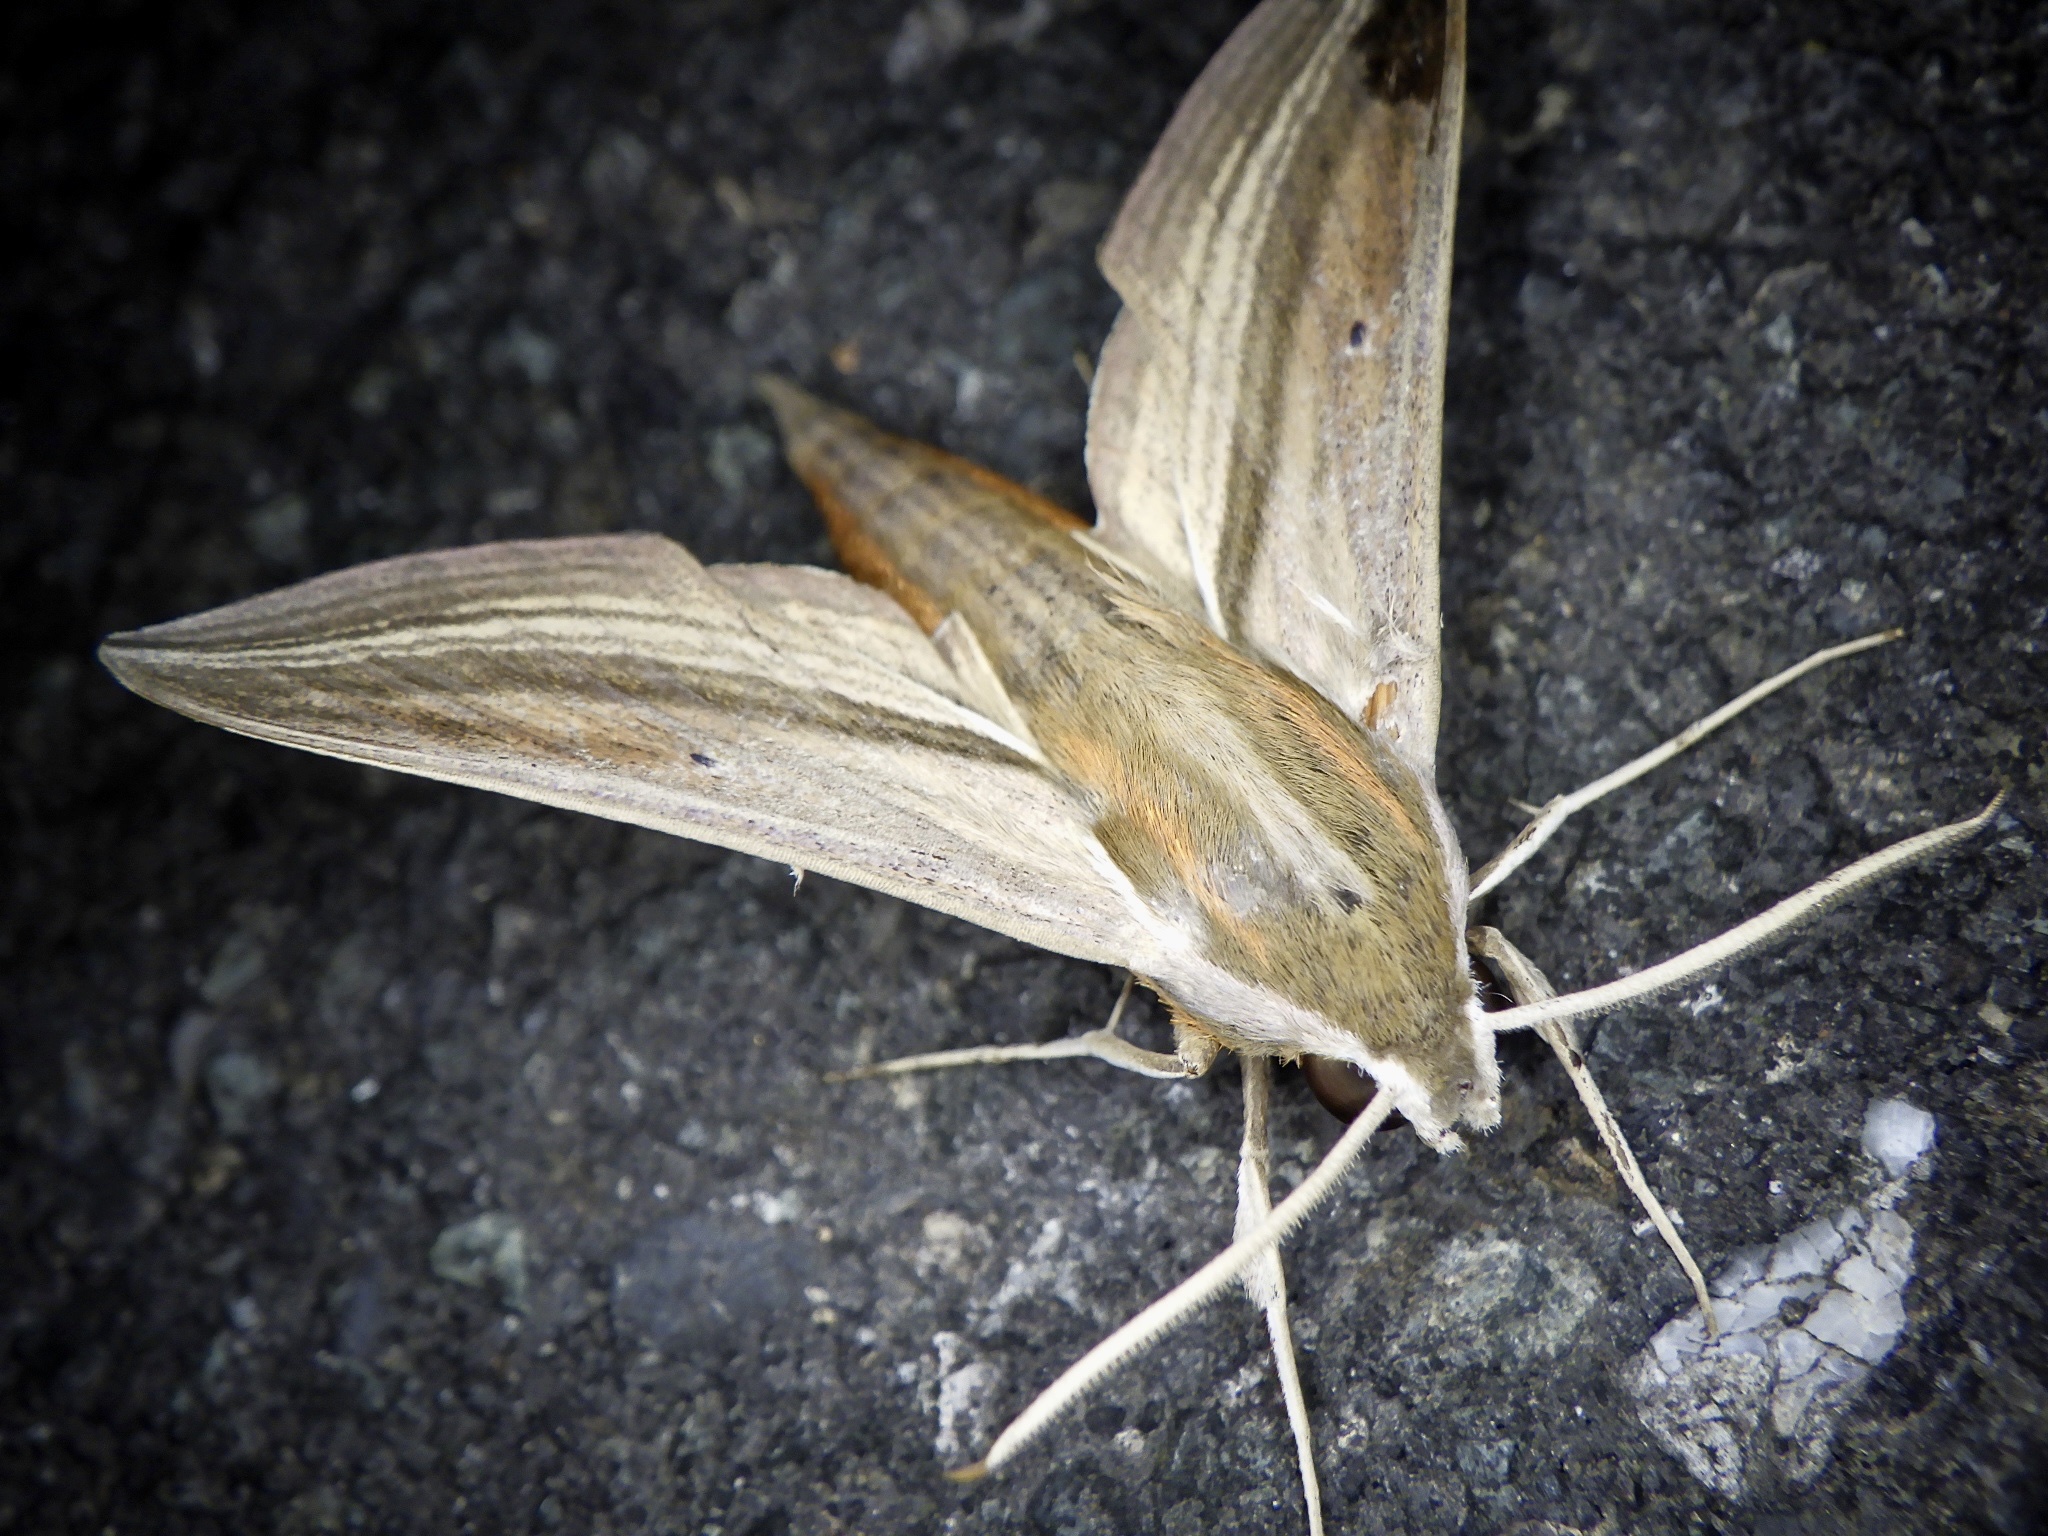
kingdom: Animalia
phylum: Arthropoda
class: Insecta
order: Lepidoptera
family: Sphingidae
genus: Theretra
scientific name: Theretra japonica
